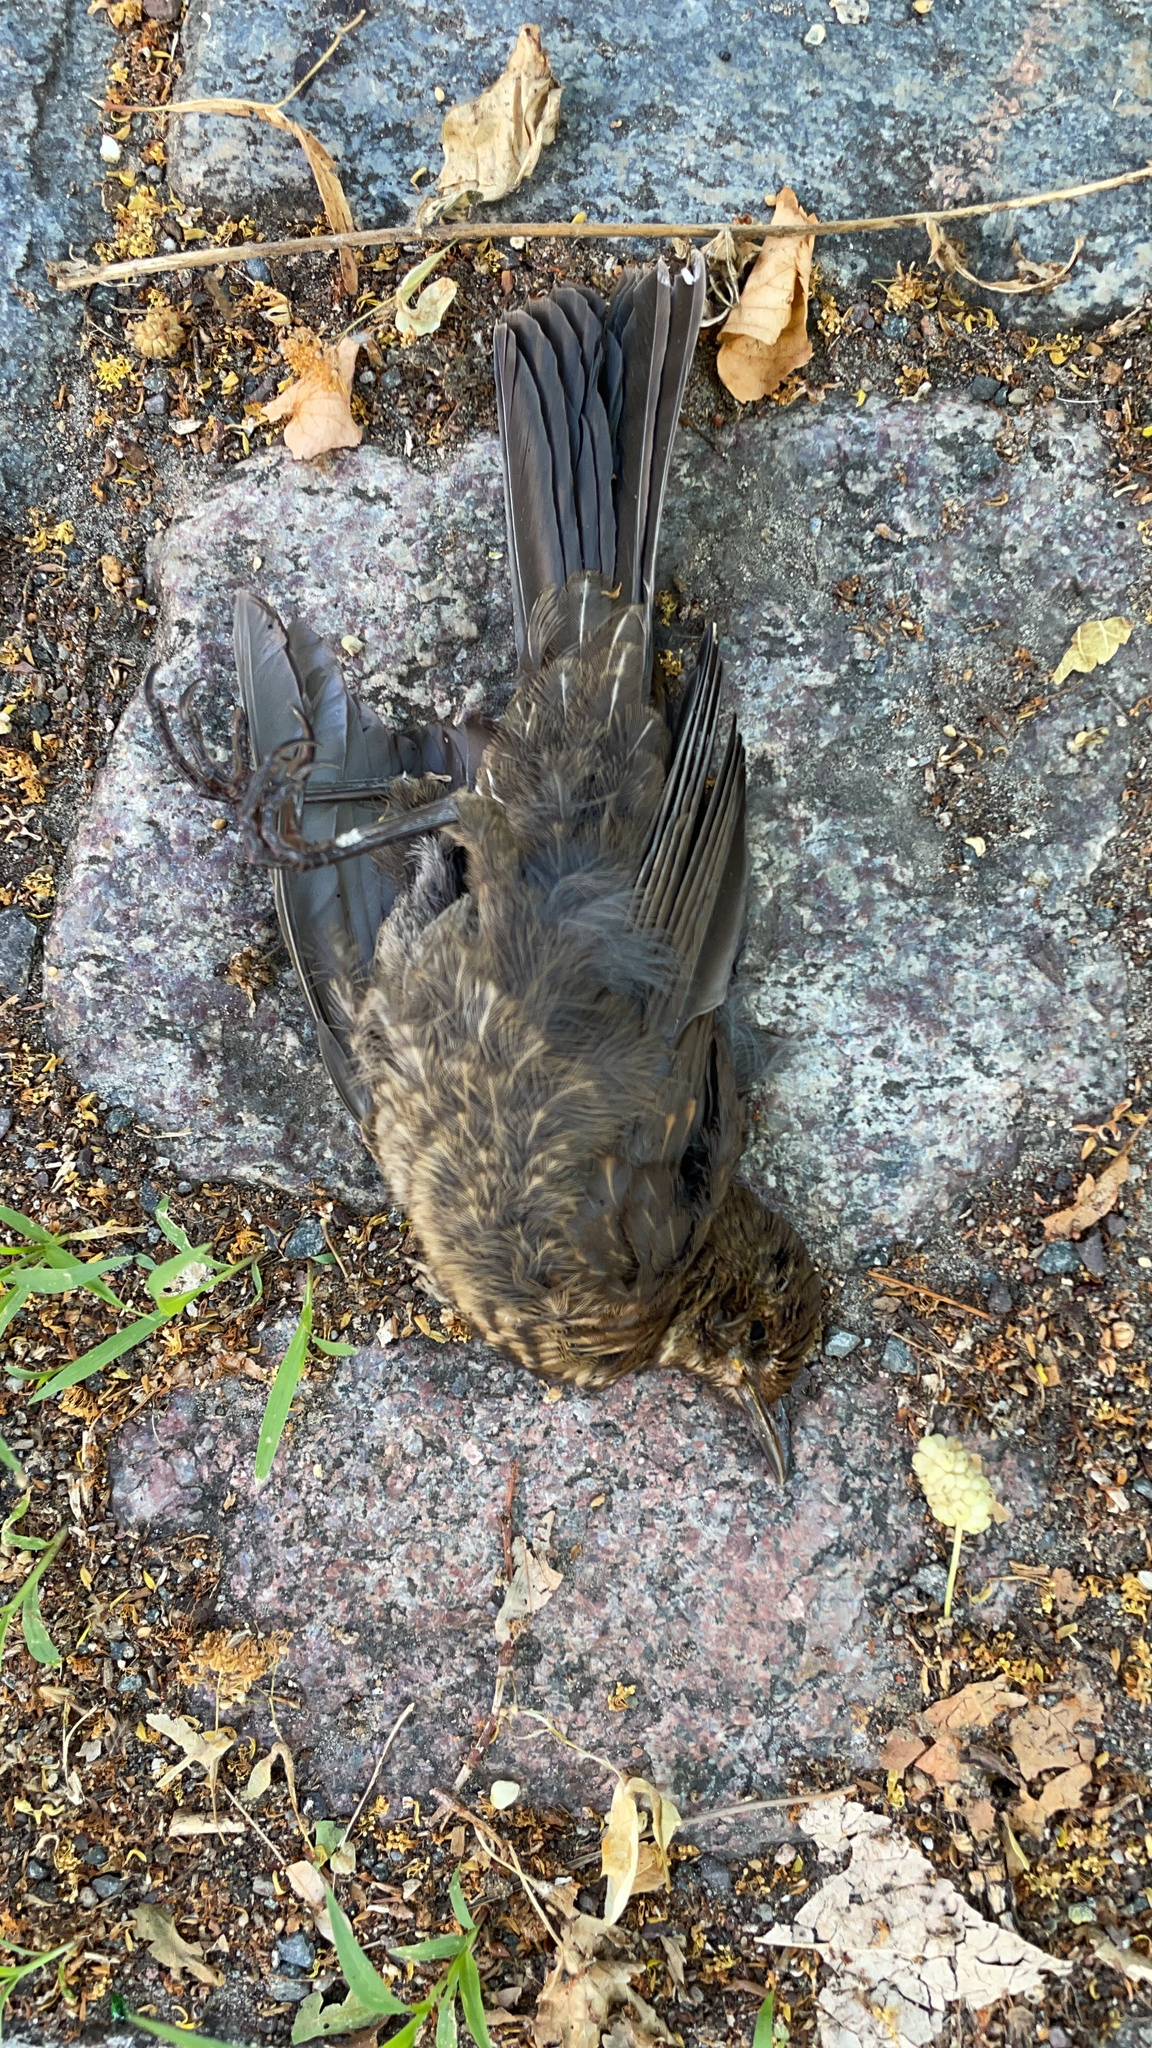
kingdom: Animalia
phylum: Chordata
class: Aves
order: Passeriformes
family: Turdidae
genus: Turdus
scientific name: Turdus merula
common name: Common blackbird
